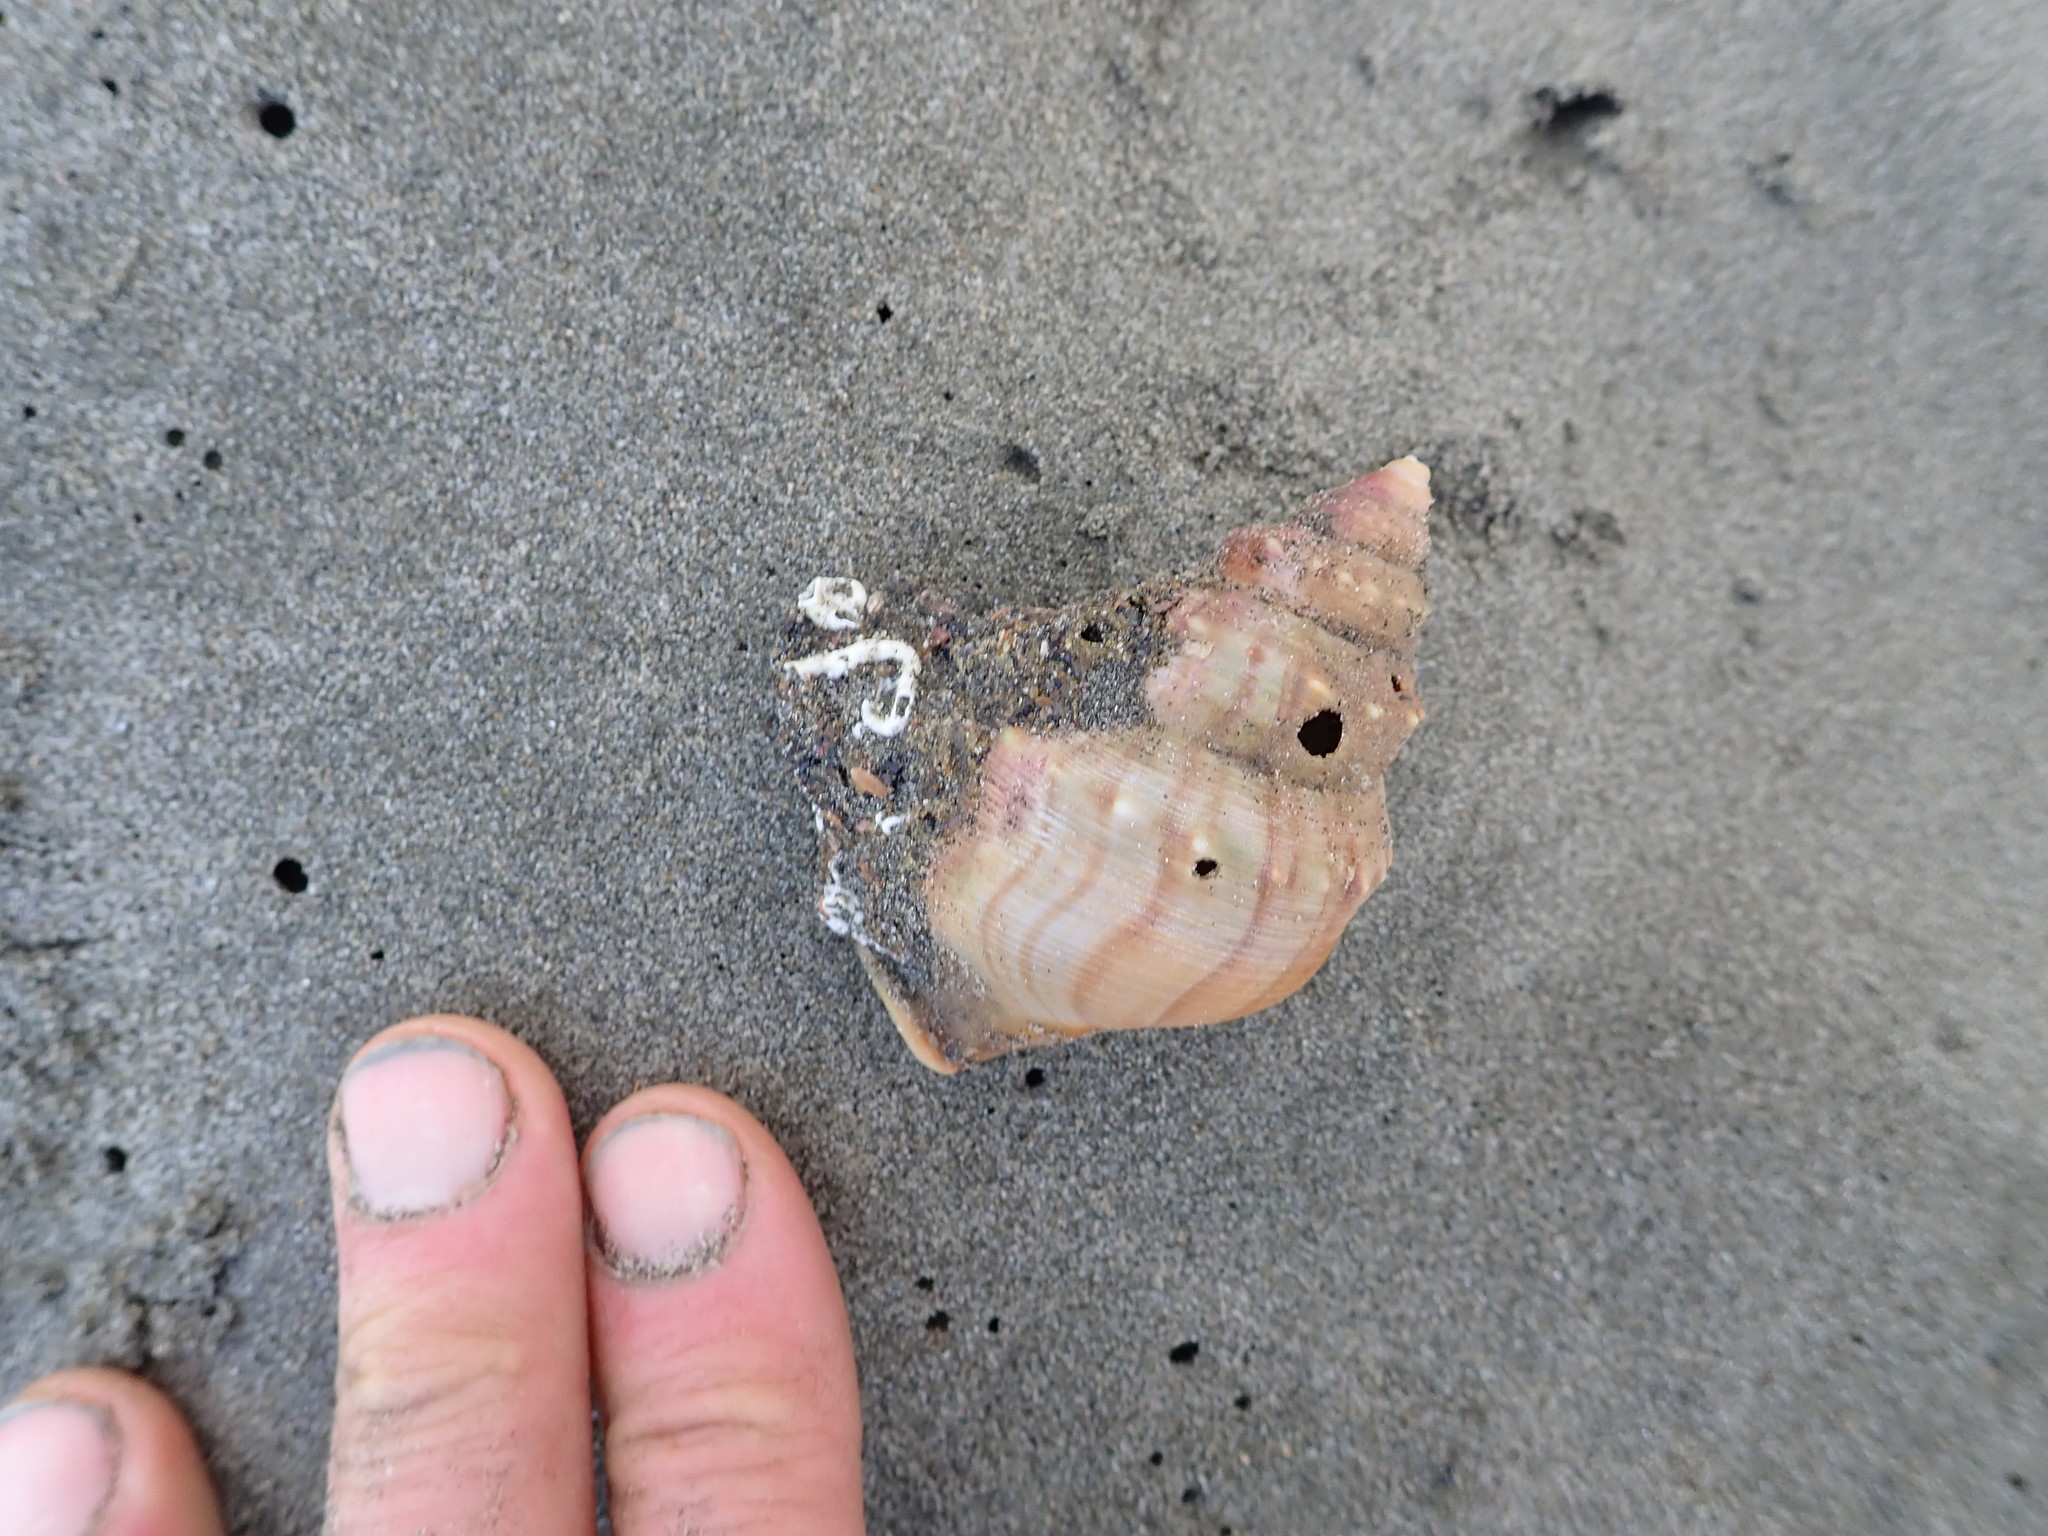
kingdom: Animalia
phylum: Mollusca
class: Gastropoda
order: Littorinimorpha
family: Struthiolariidae
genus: Struthiolaria
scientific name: Struthiolaria papulosa
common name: Large ostrich foot
